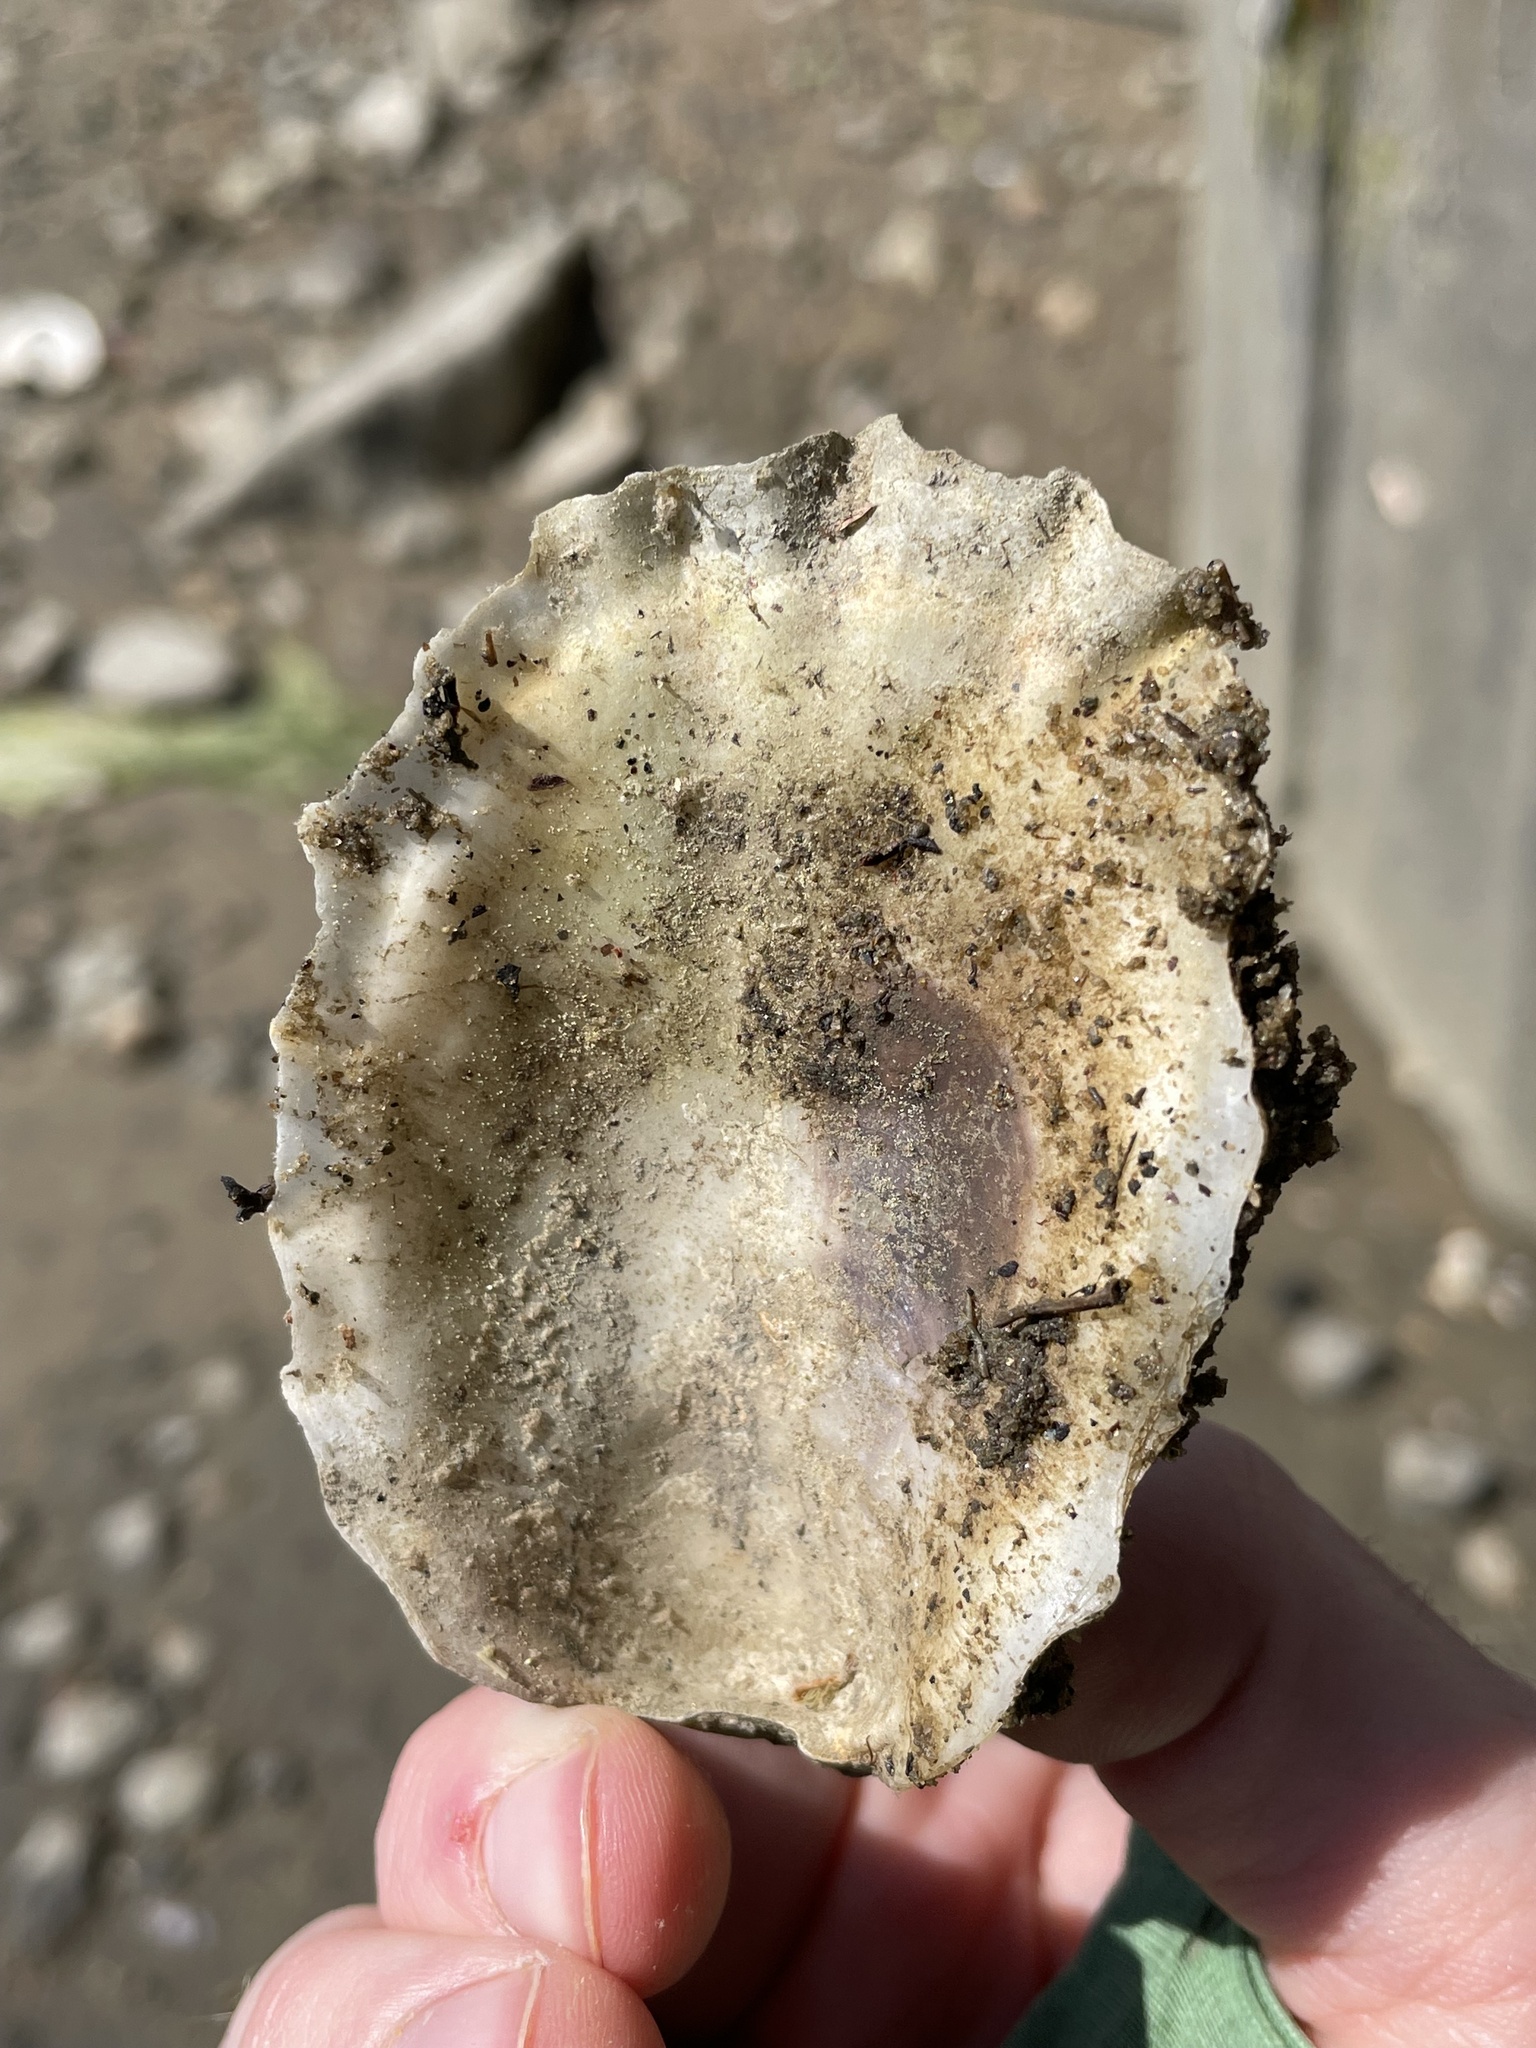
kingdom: Animalia
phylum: Mollusca
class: Bivalvia
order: Ostreida
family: Ostreidae
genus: Crassostrea
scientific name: Crassostrea virginica
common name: American oyster
